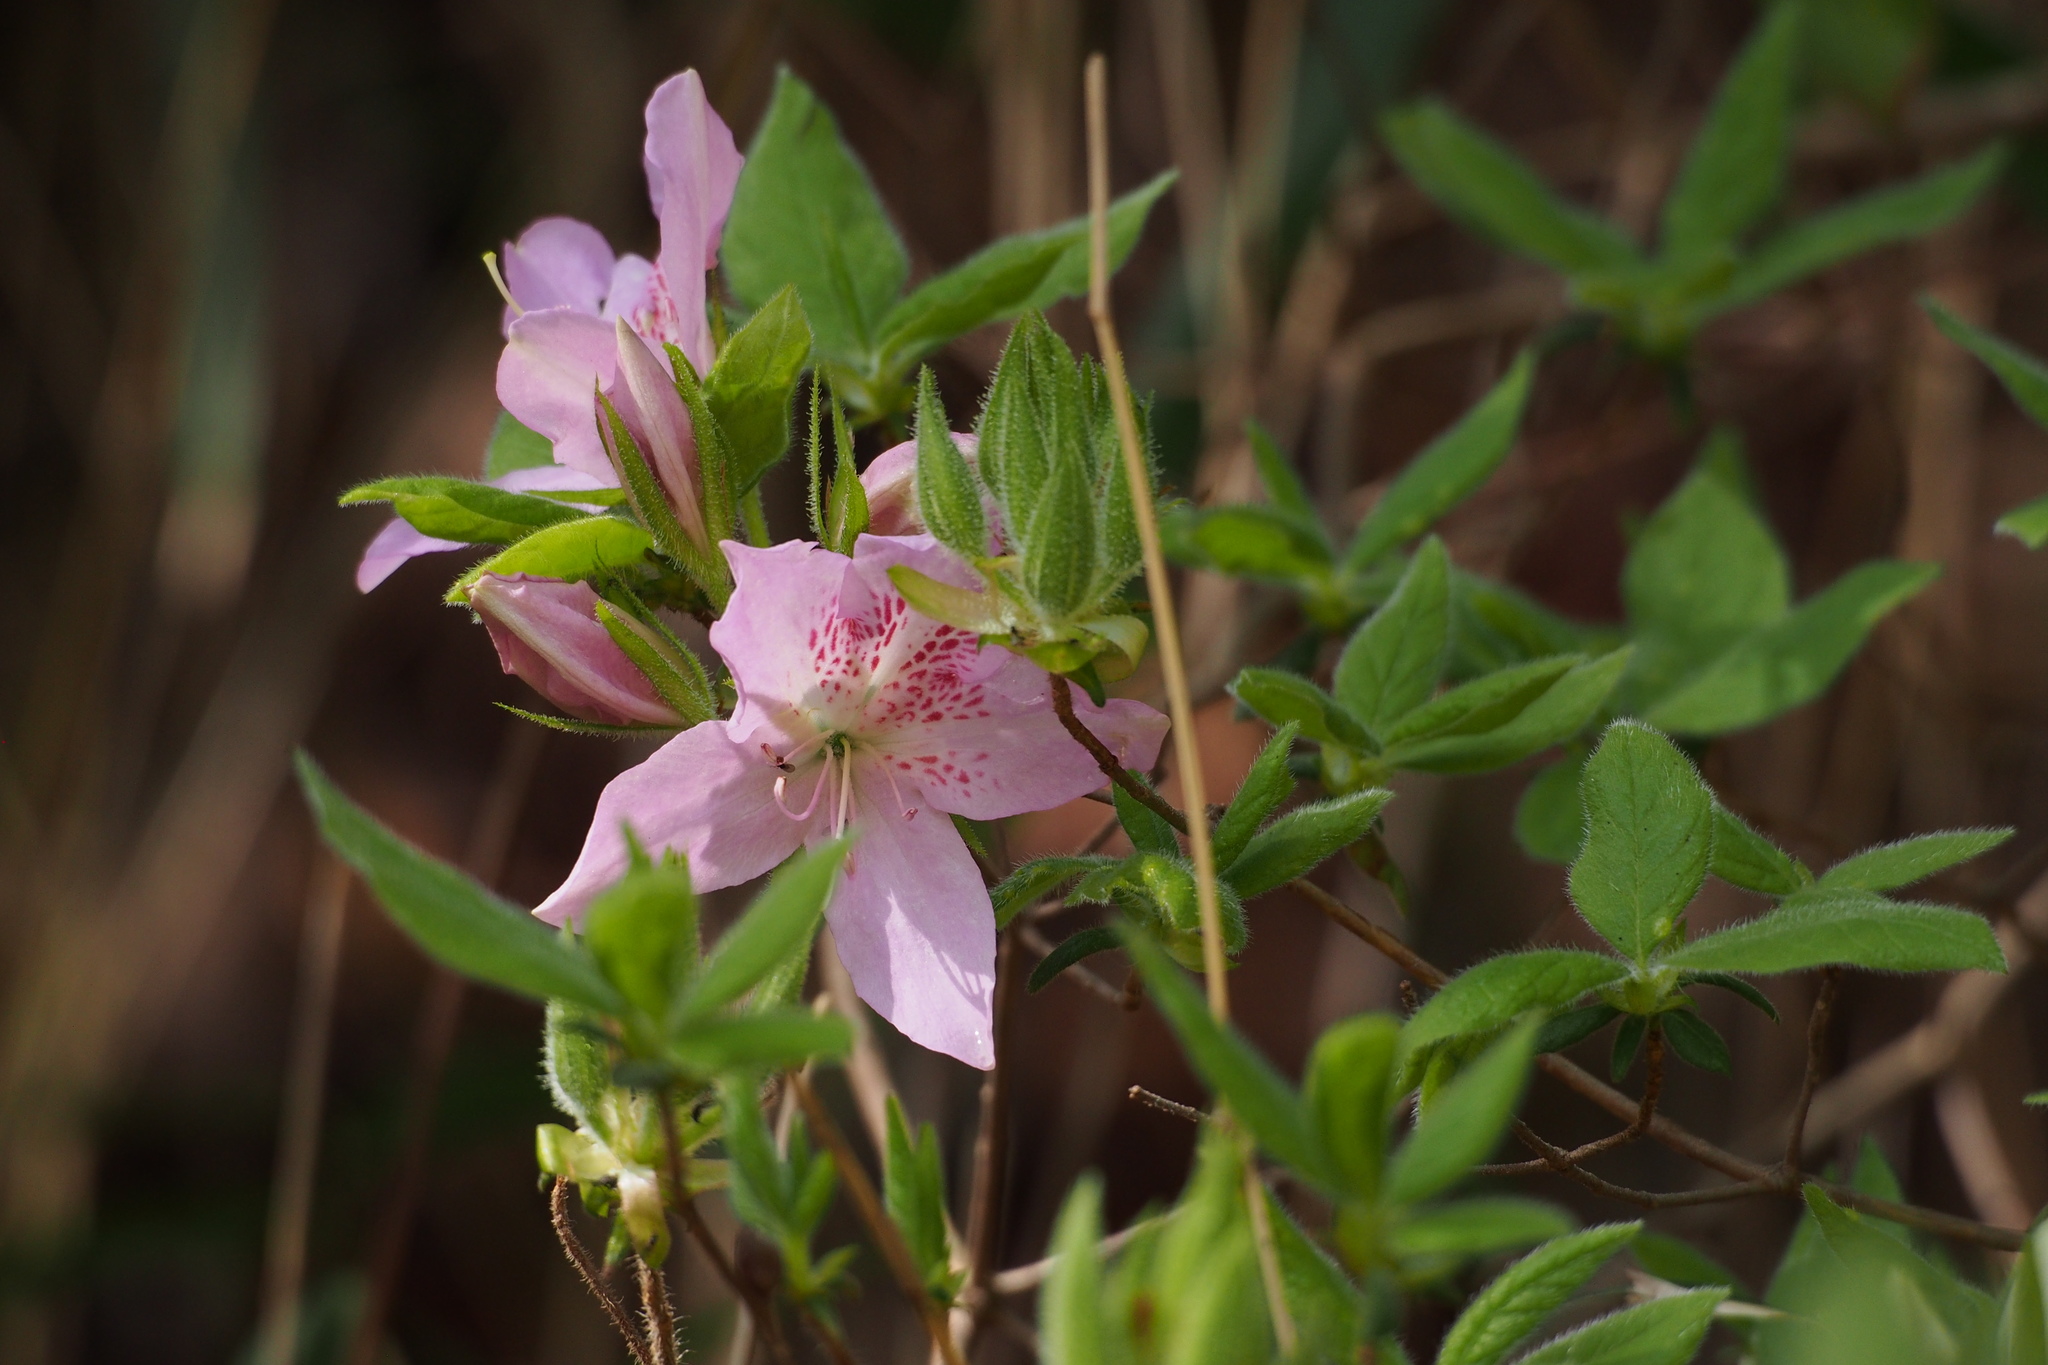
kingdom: Plantae
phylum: Tracheophyta
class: Magnoliopsida
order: Ericales
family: Ericaceae
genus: Rhododendron
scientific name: Rhododendron stenopetalum
